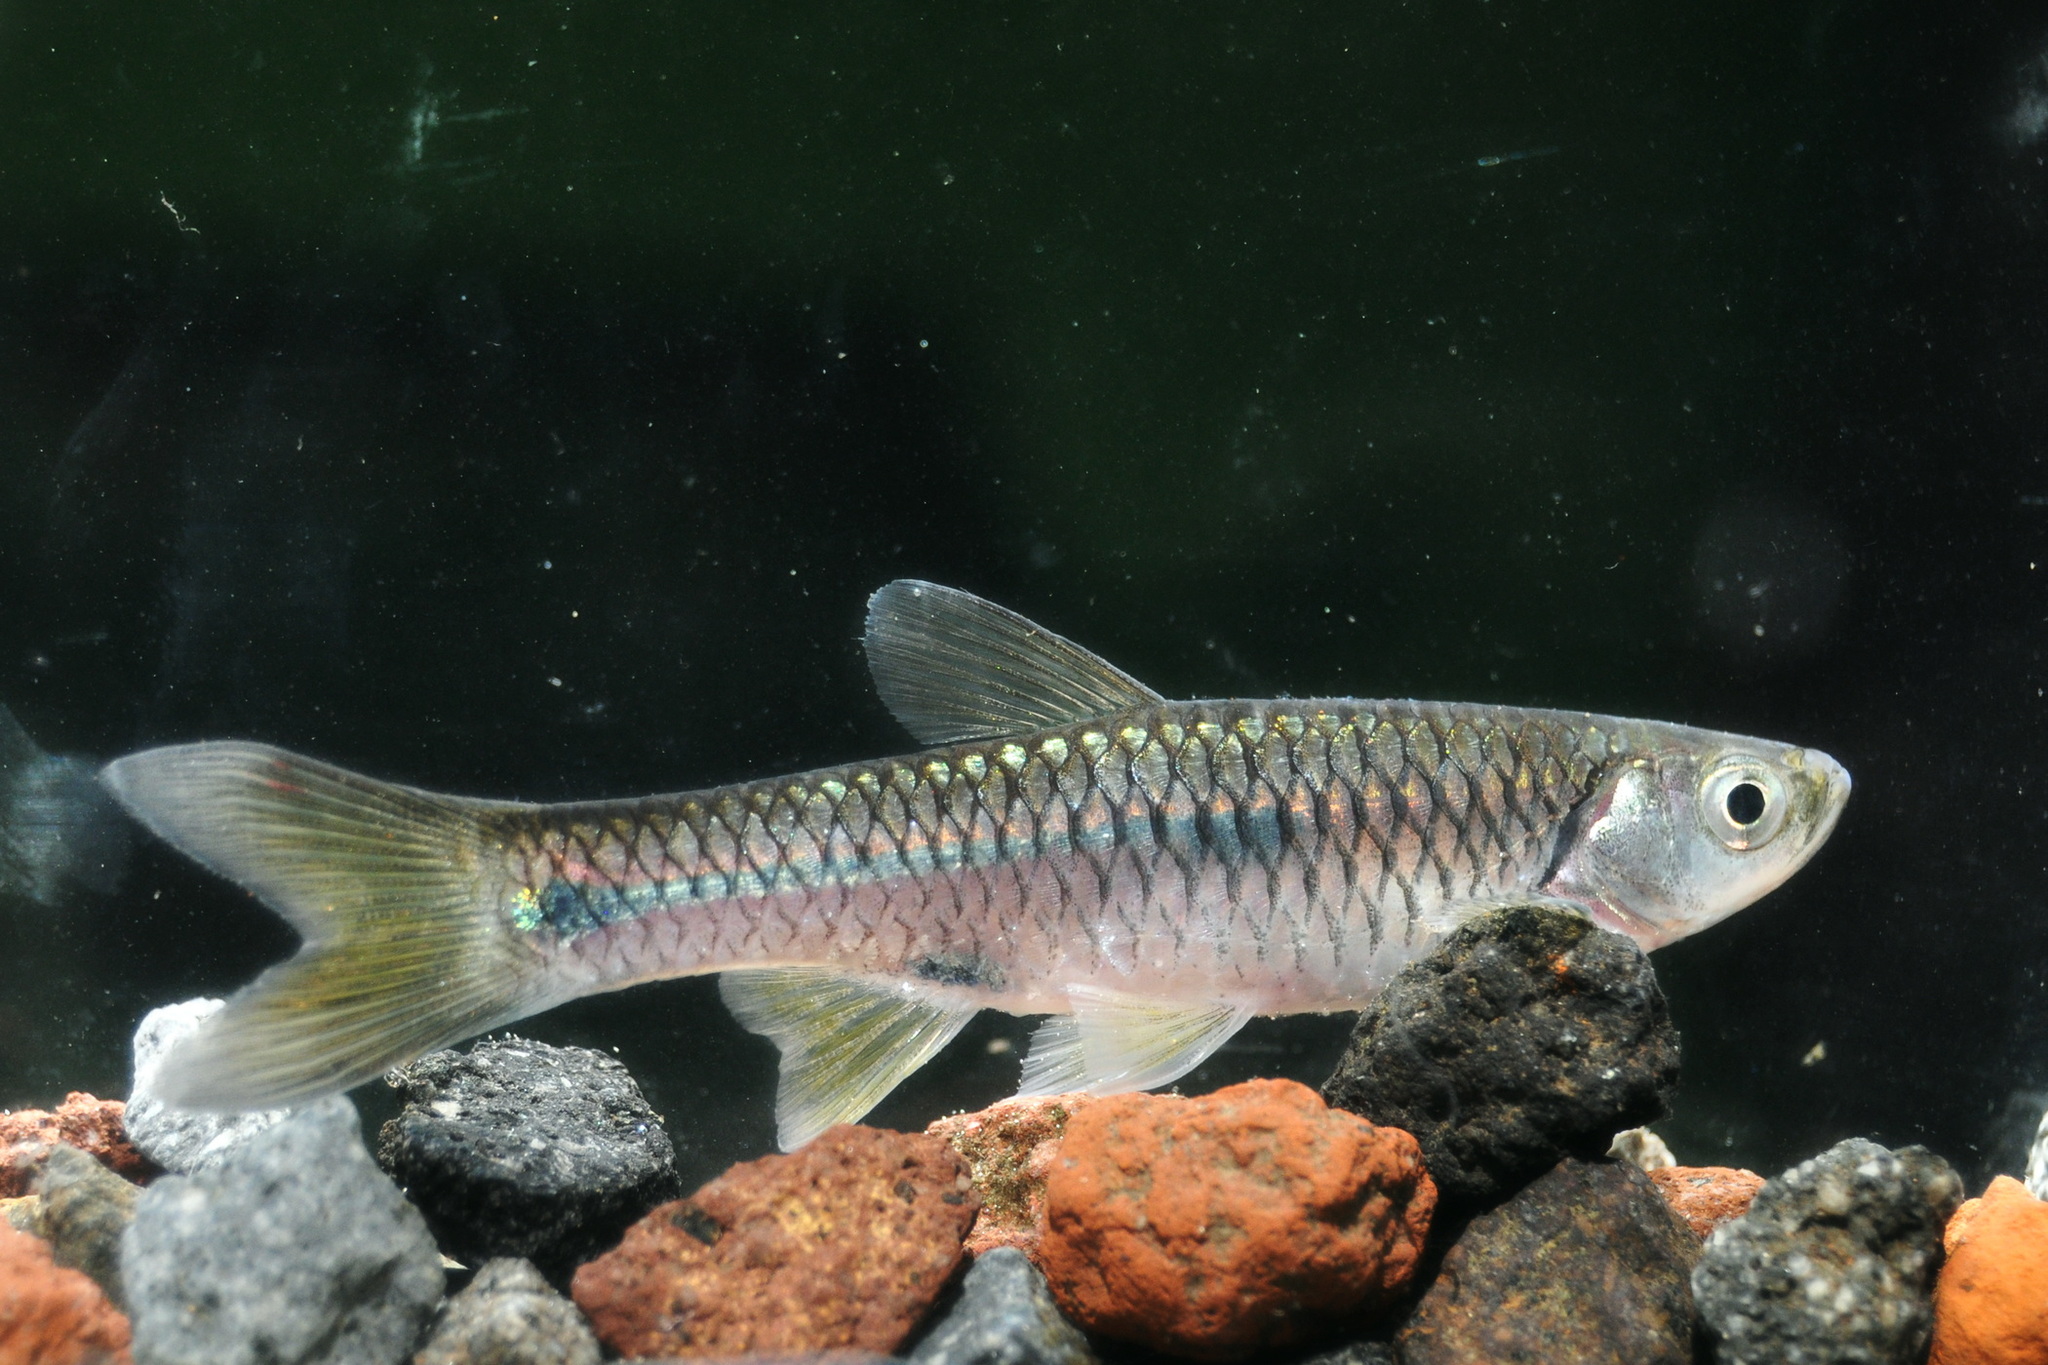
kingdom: Animalia
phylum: Chordata
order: Cypriniformes
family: Cyprinidae
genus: Rasbora
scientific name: Rasbora aprotaenia
